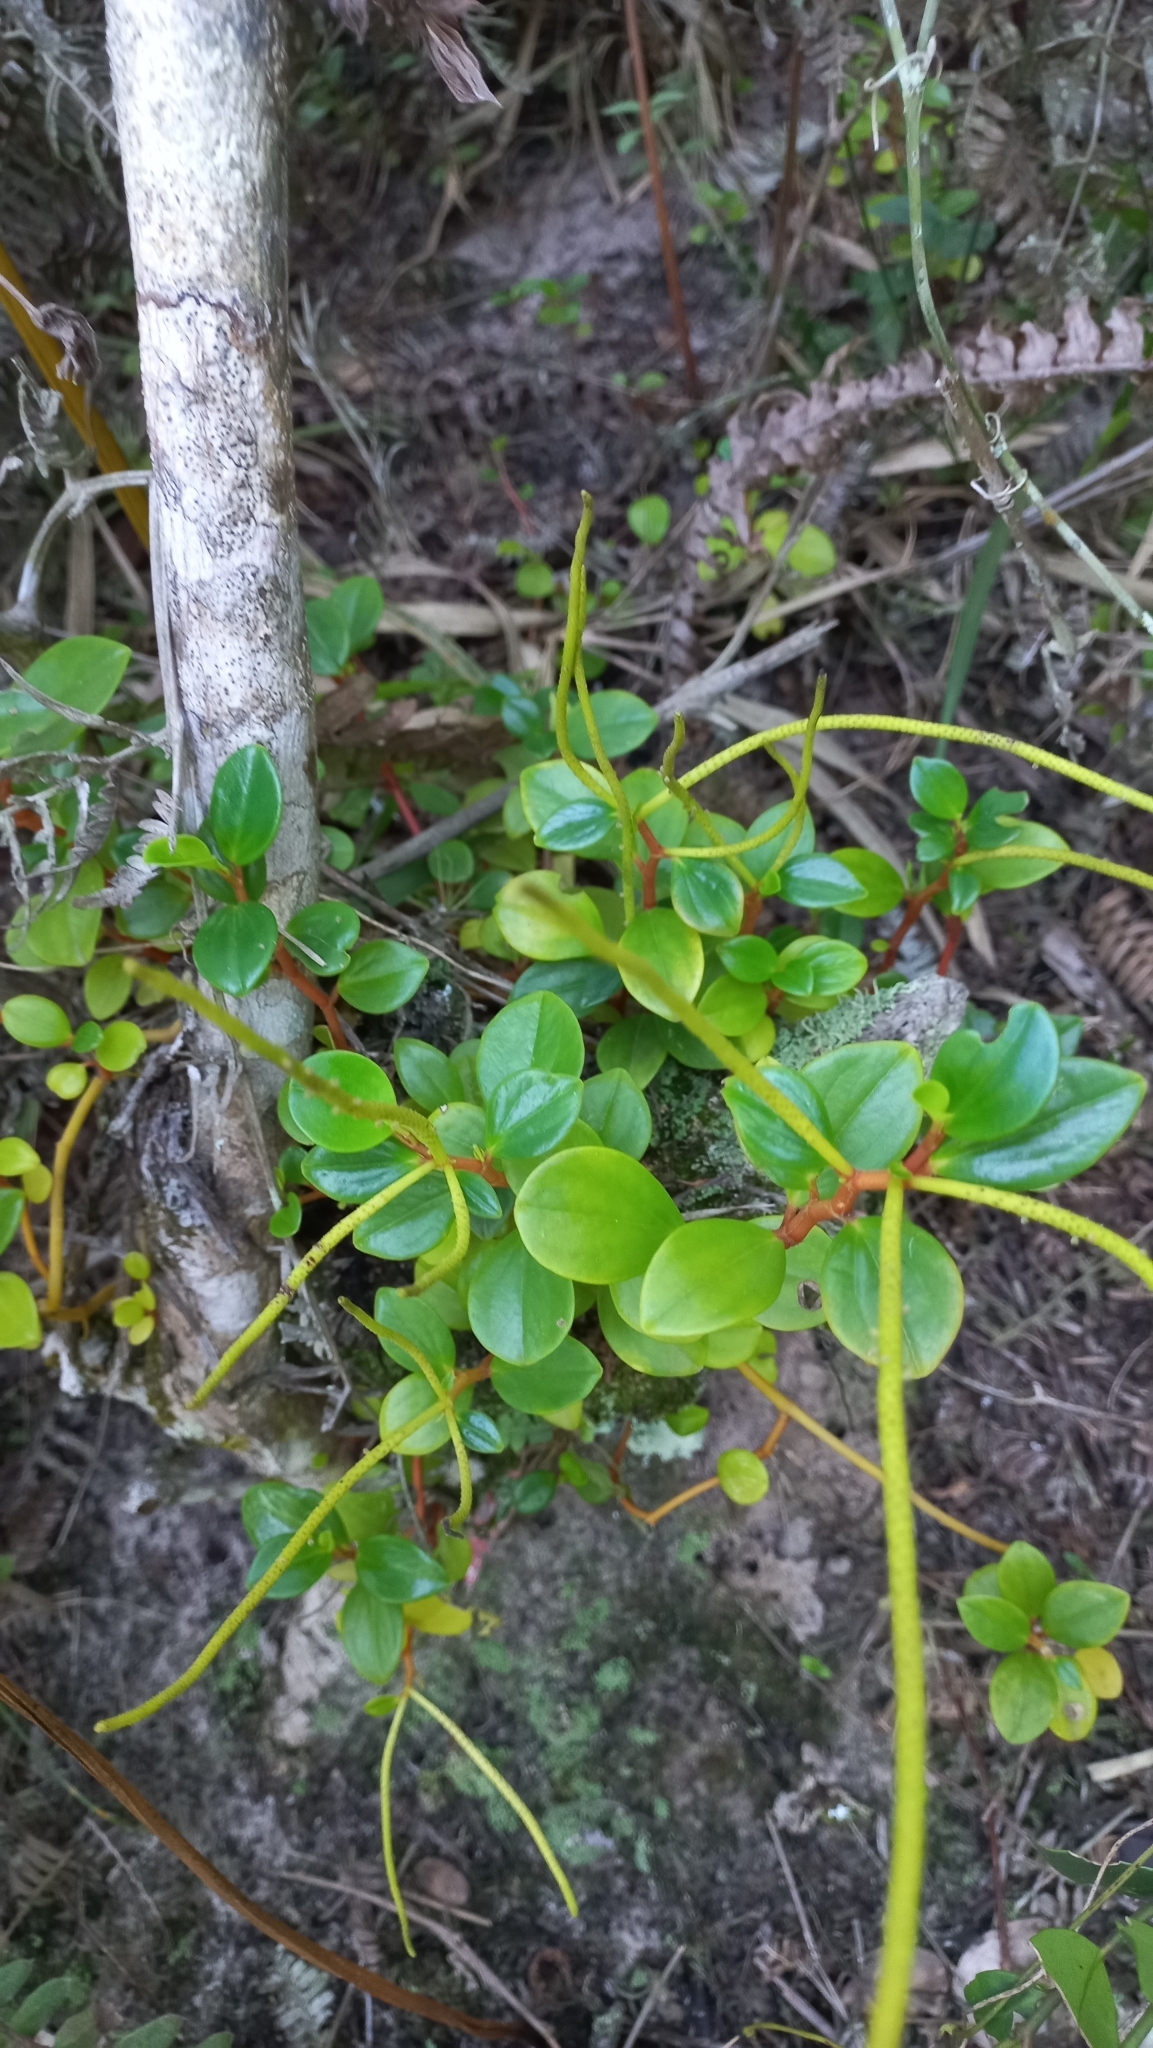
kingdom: Plantae
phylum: Tracheophyta
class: Magnoliopsida
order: Piperales
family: Piperaceae
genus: Peperomia
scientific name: Peperomia glabella
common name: Cypress peperomia
